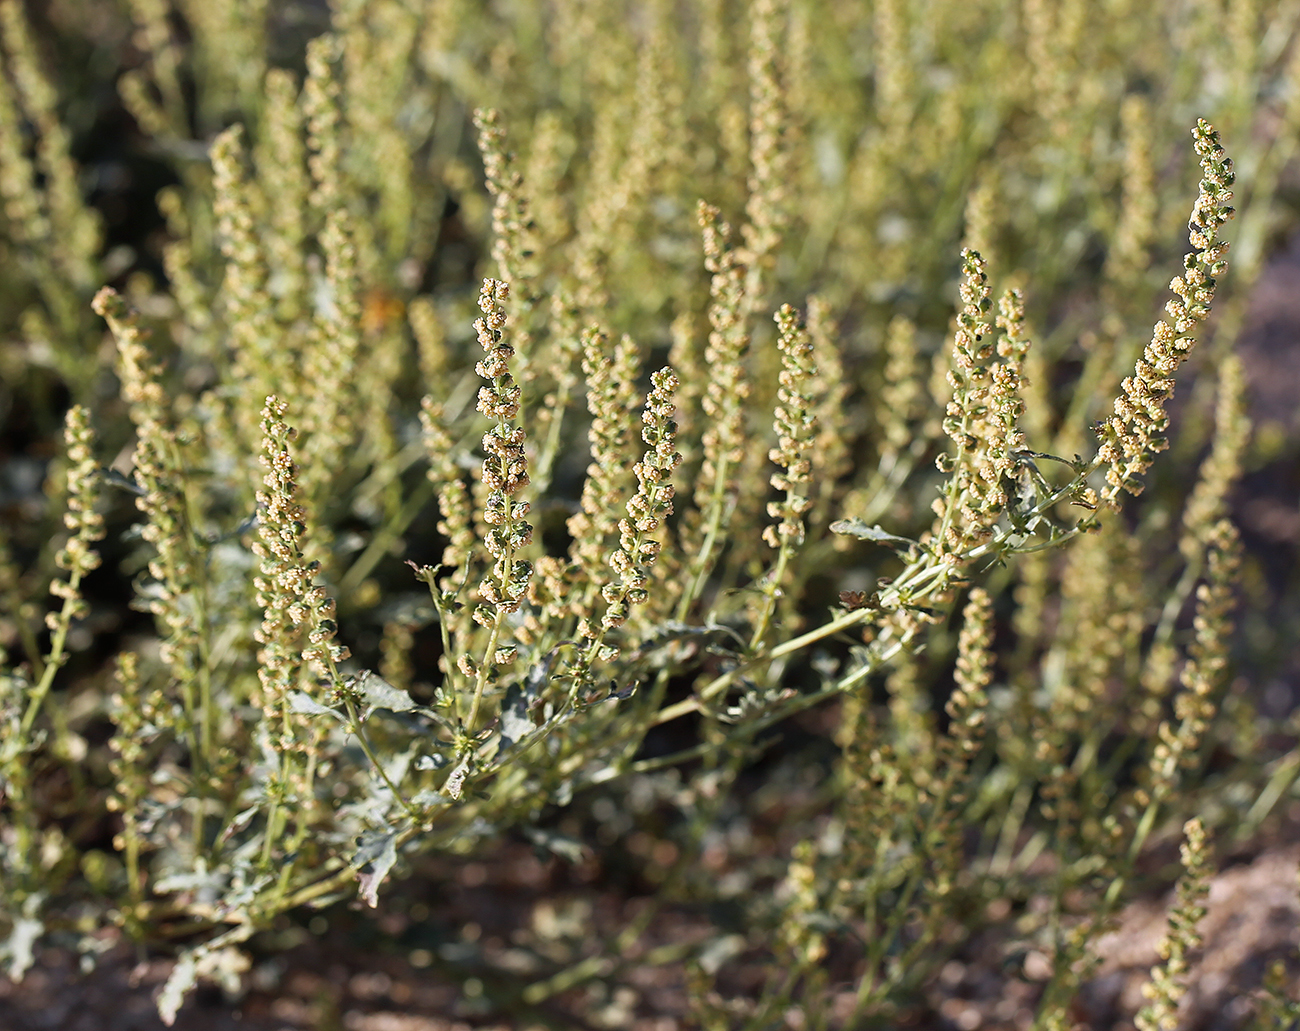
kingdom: Plantae
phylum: Tracheophyta
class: Magnoliopsida
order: Asterales
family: Asteraceae
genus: Ambrosia
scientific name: Ambrosia acanthicarpa
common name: Hooker's bur ragweed
